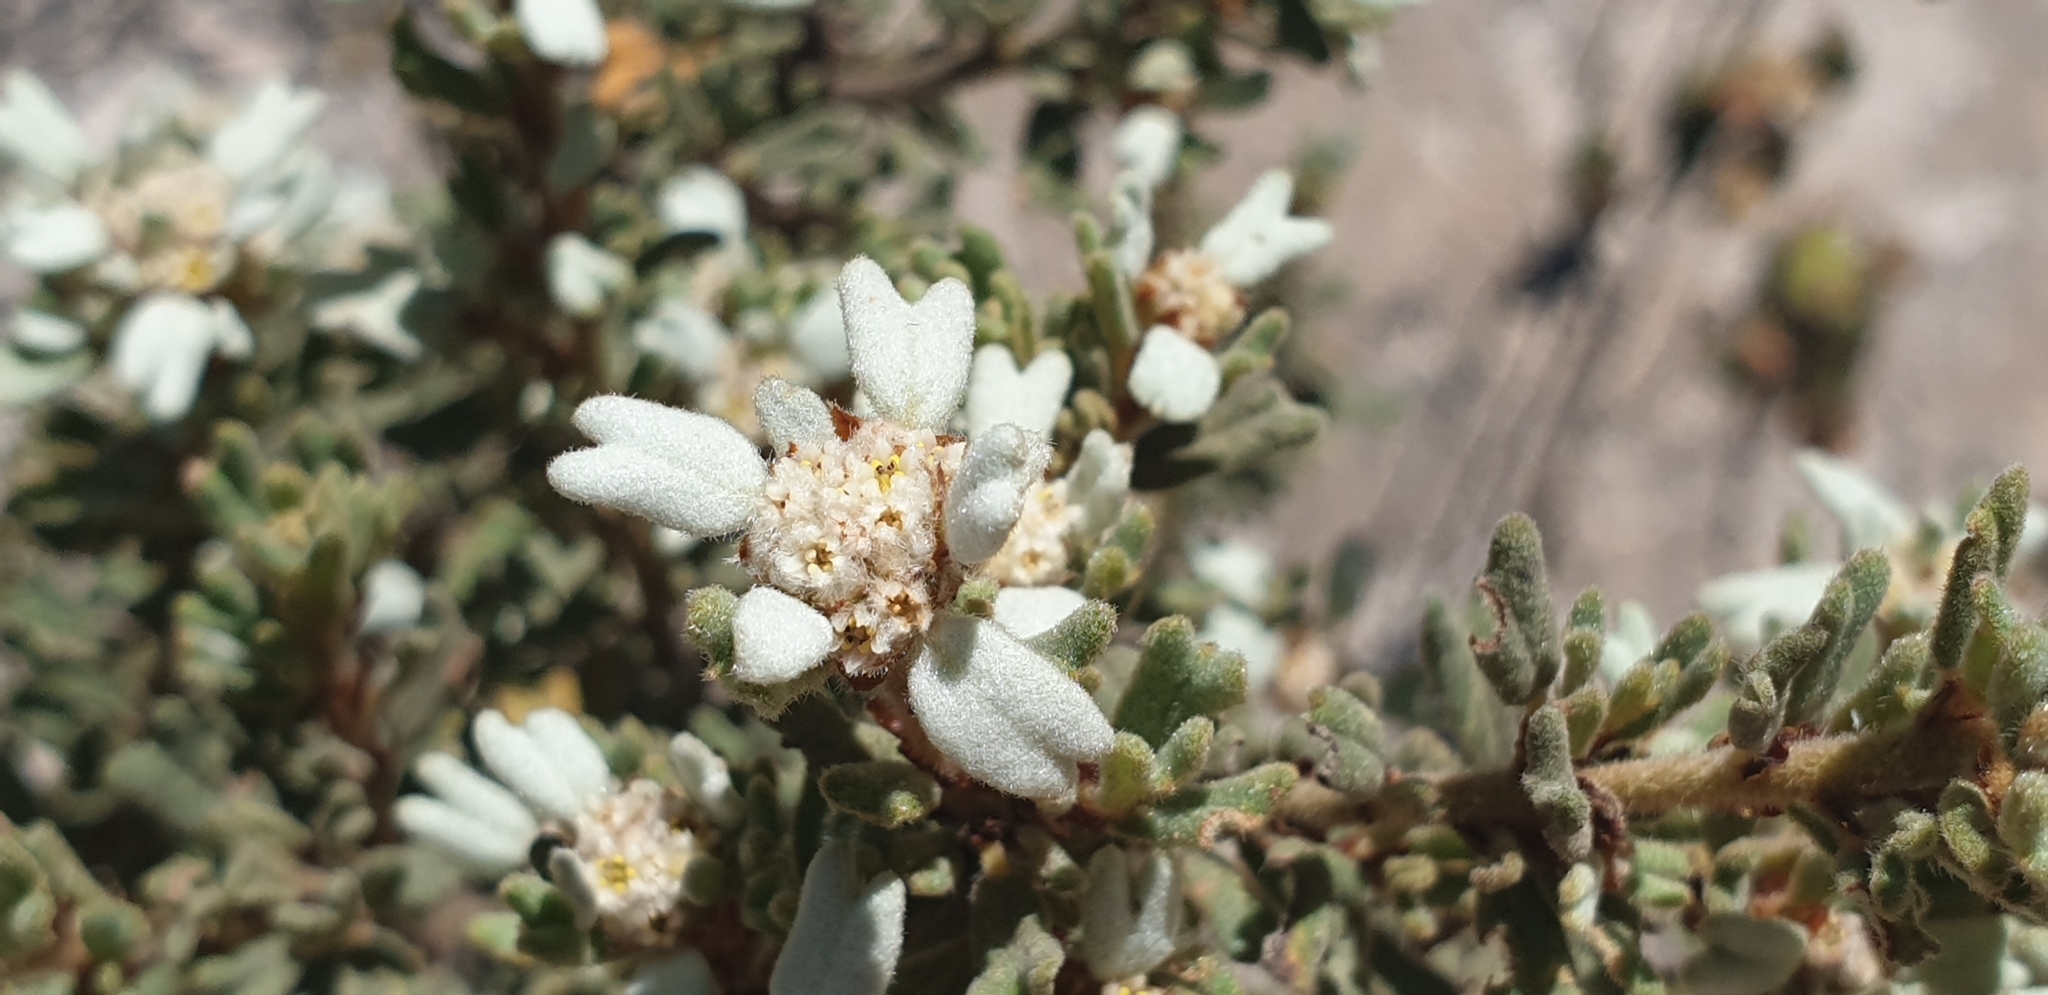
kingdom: Plantae
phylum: Tracheophyta
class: Magnoliopsida
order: Rosales
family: Rhamnaceae
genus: Spyridium
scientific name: Spyridium halmaturinum
